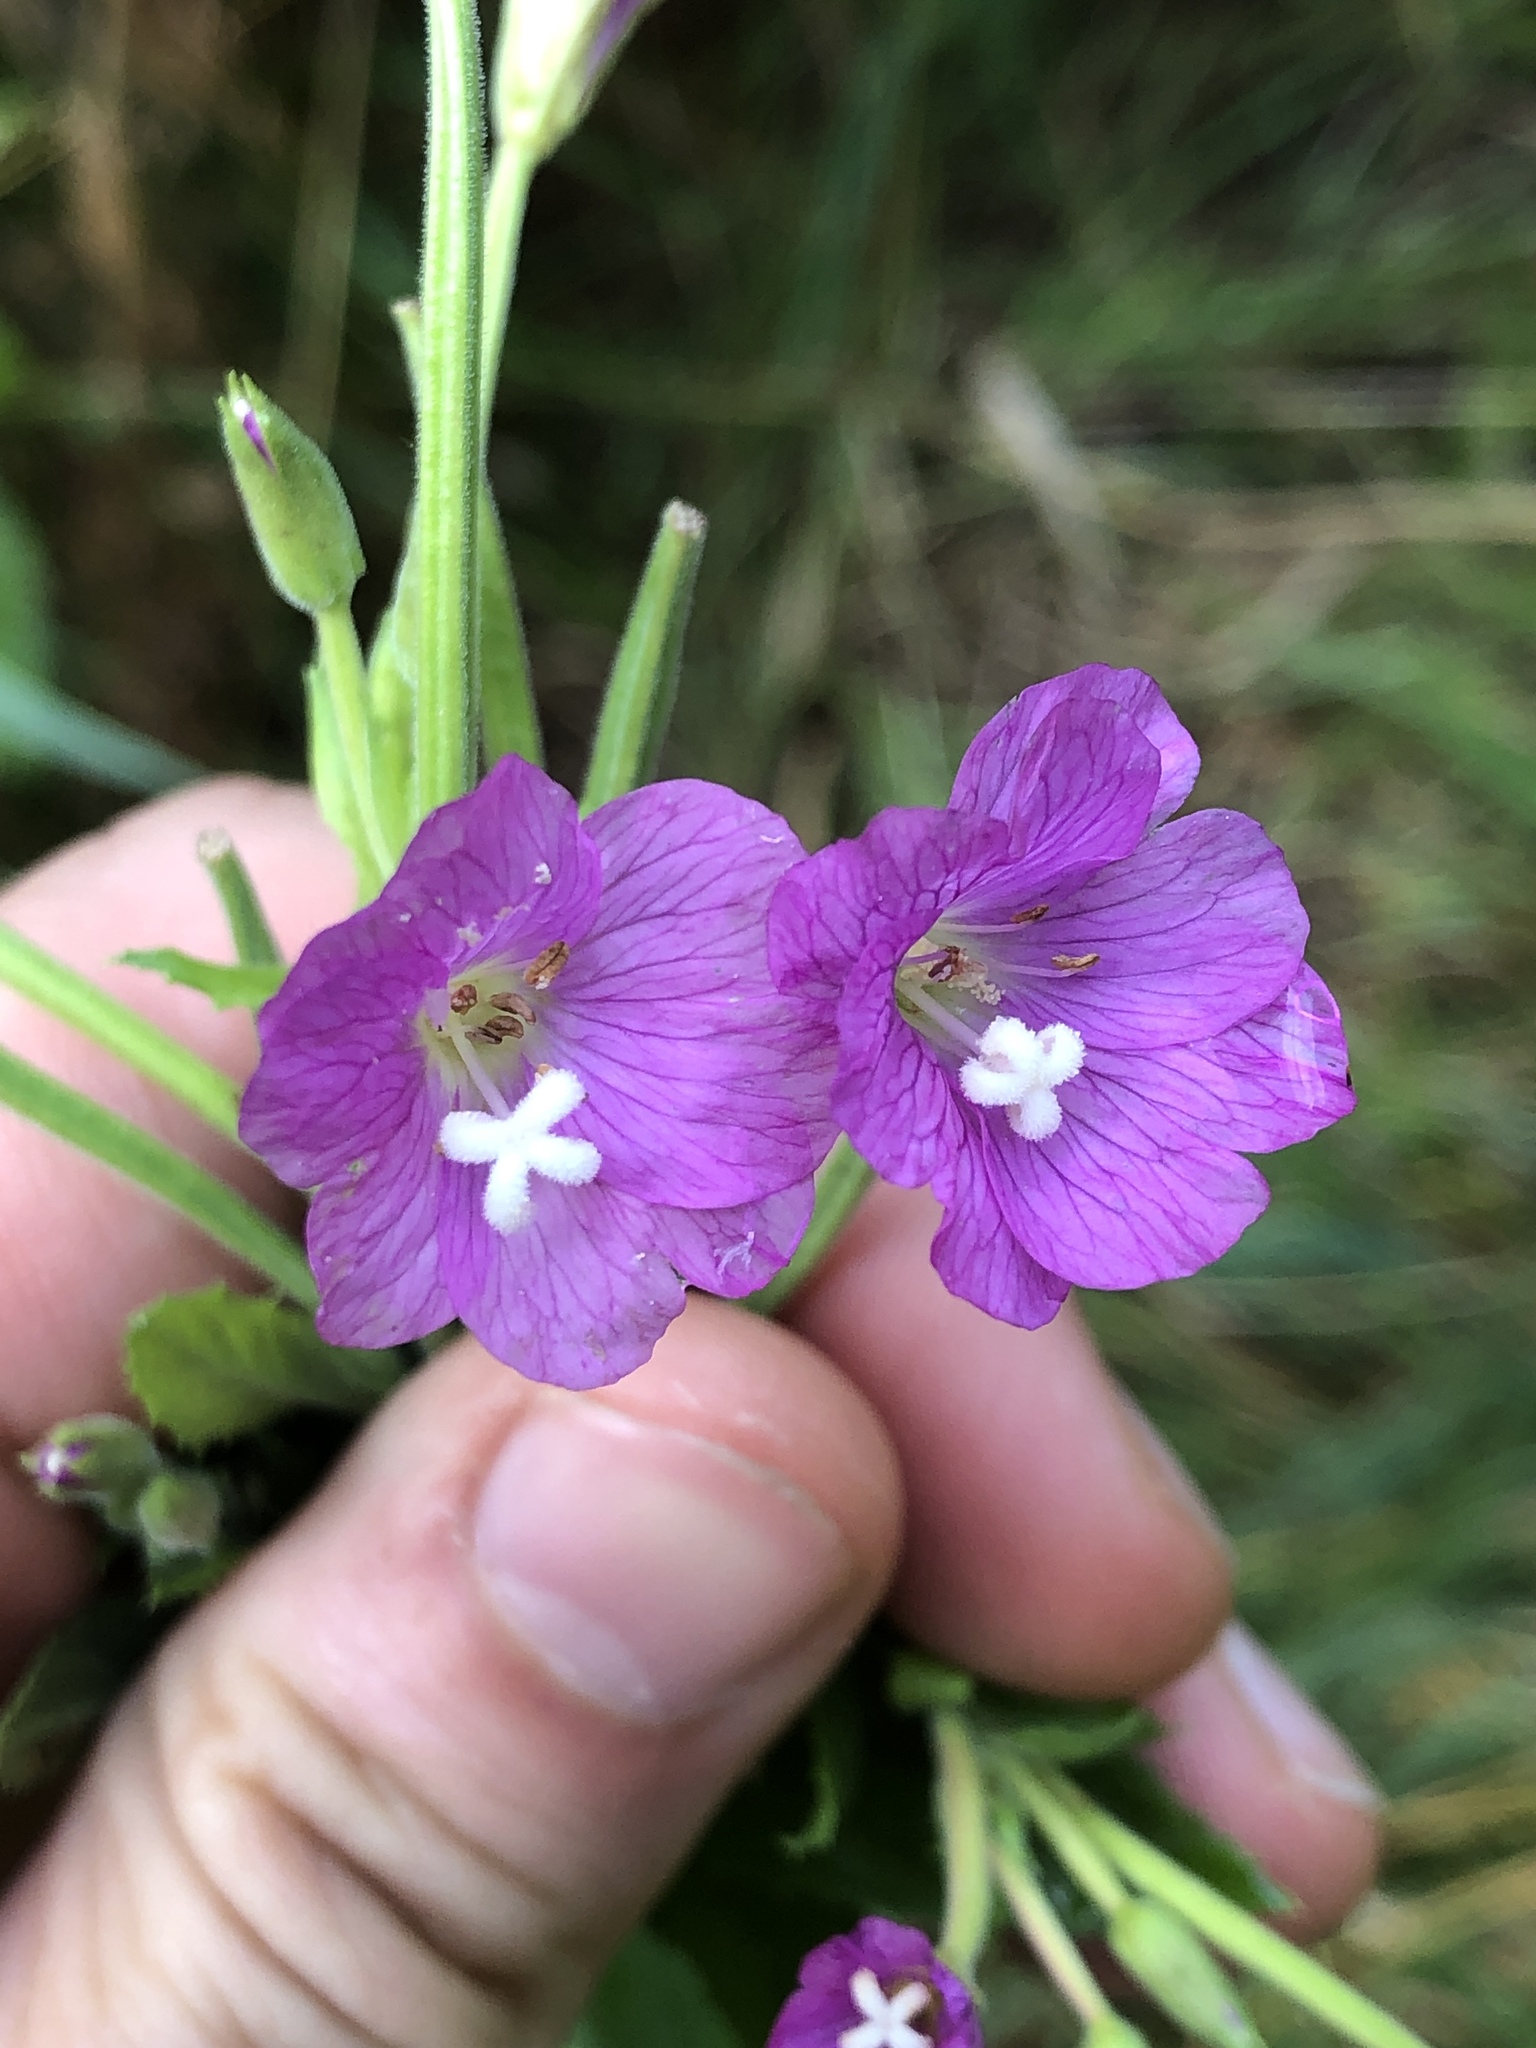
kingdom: Plantae
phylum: Tracheophyta
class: Magnoliopsida
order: Myrtales
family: Onagraceae
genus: Epilobium
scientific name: Epilobium hirsutum
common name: Great willowherb
